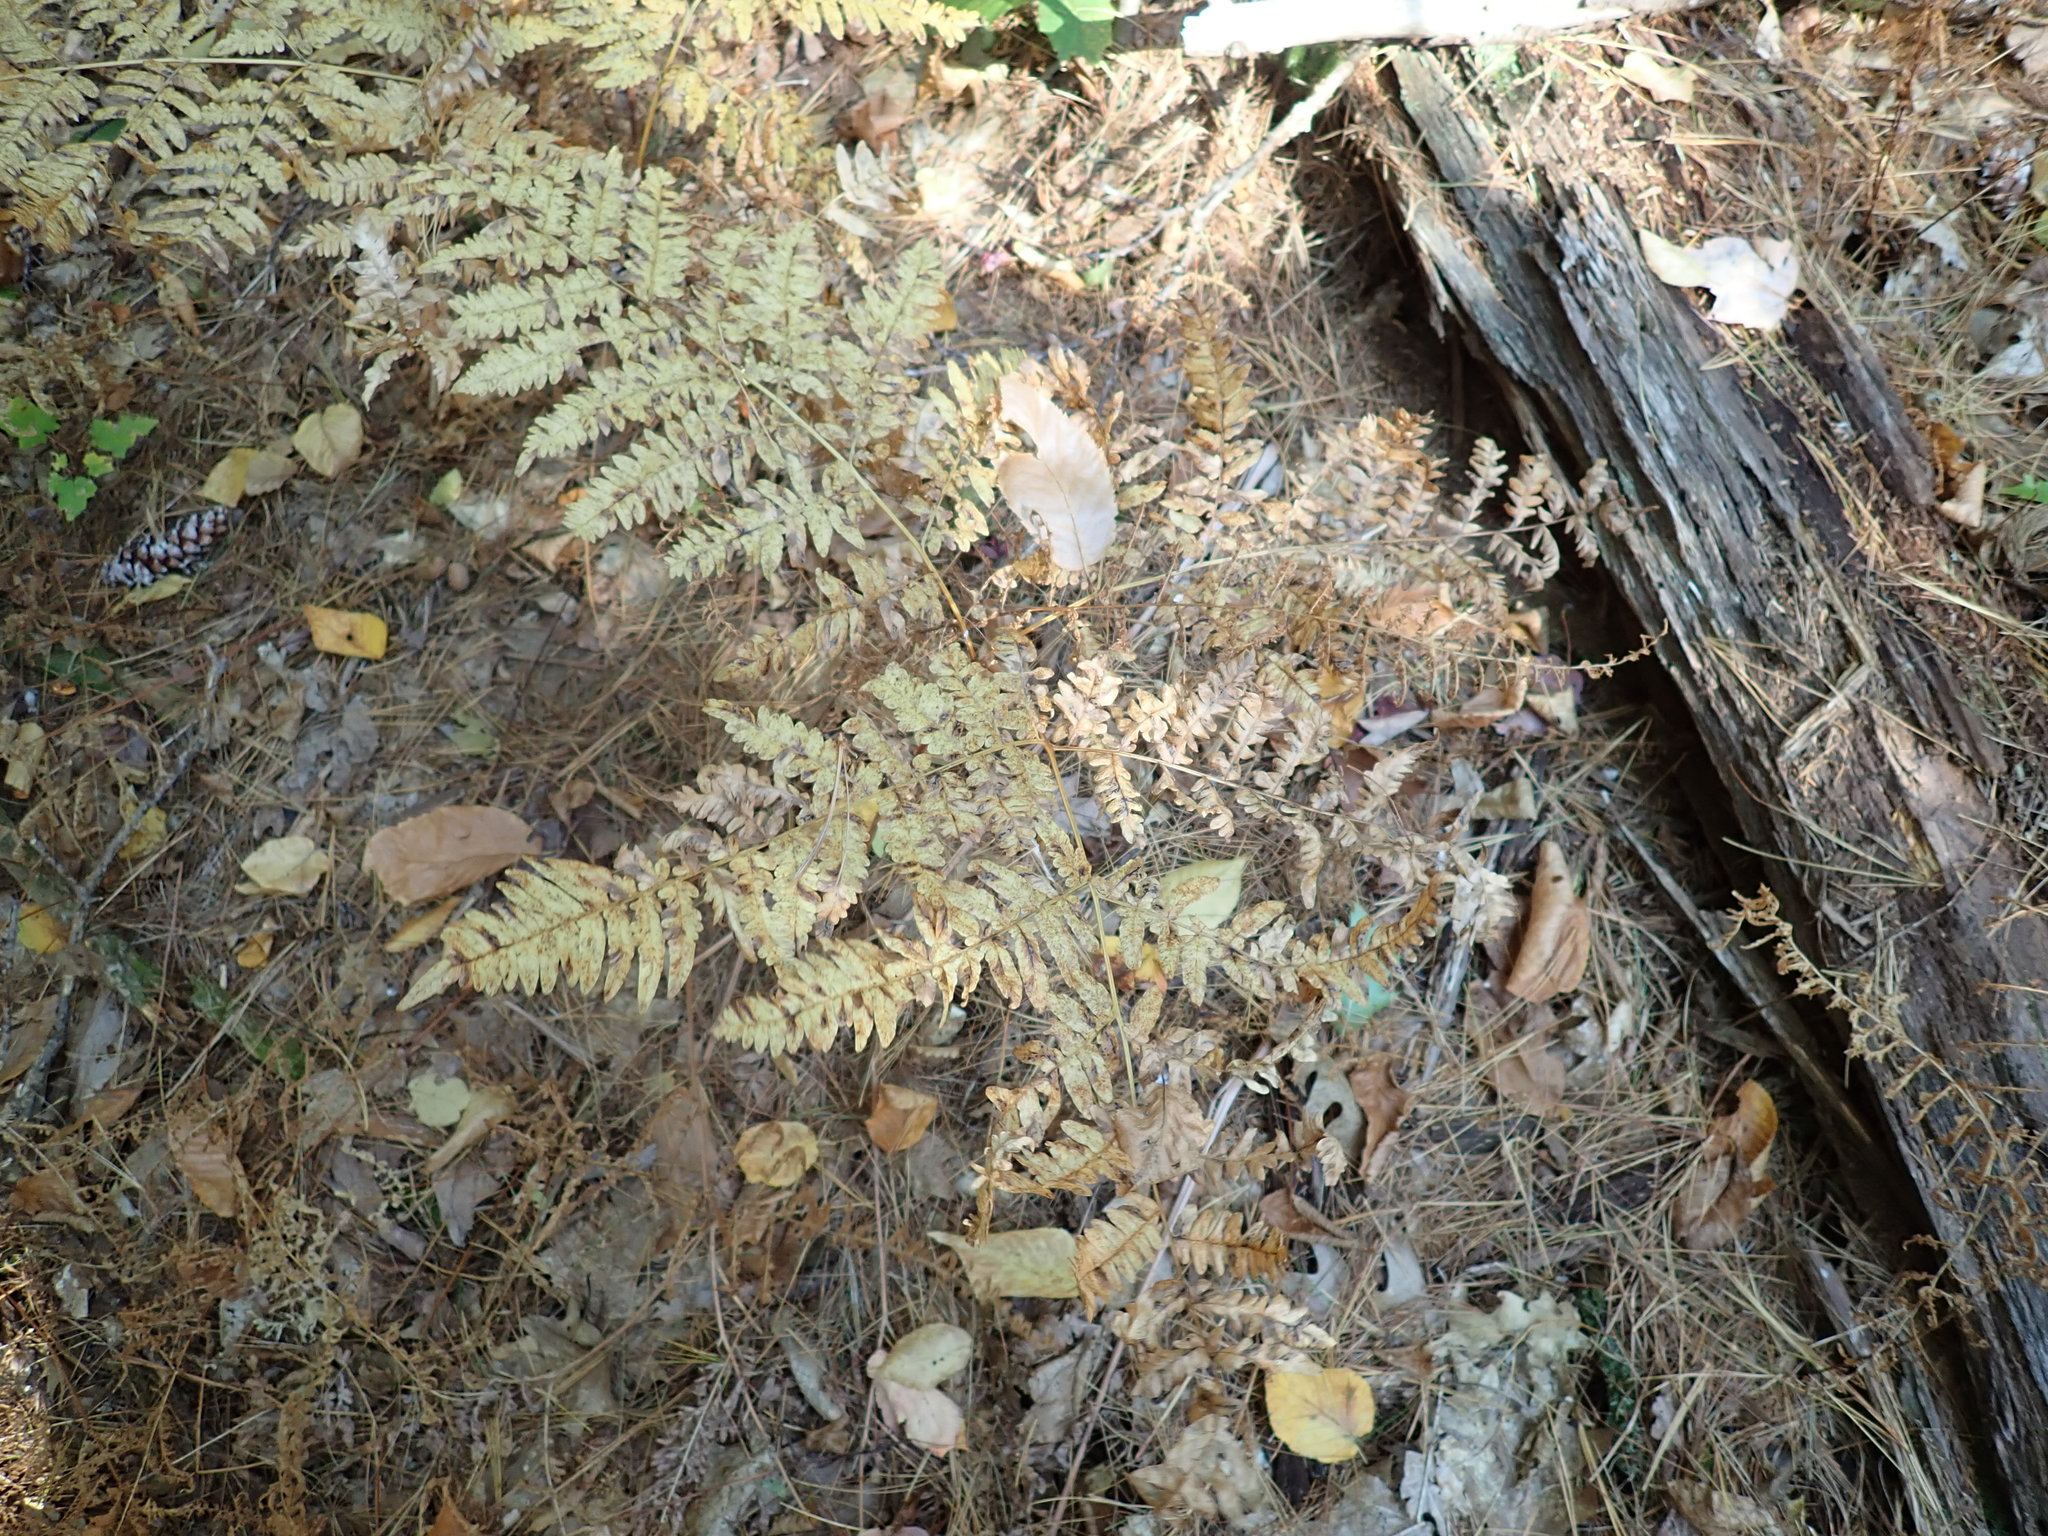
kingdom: Plantae
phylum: Tracheophyta
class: Polypodiopsida
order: Polypodiales
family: Dennstaedtiaceae
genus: Pteridium
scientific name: Pteridium aquilinum
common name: Bracken
